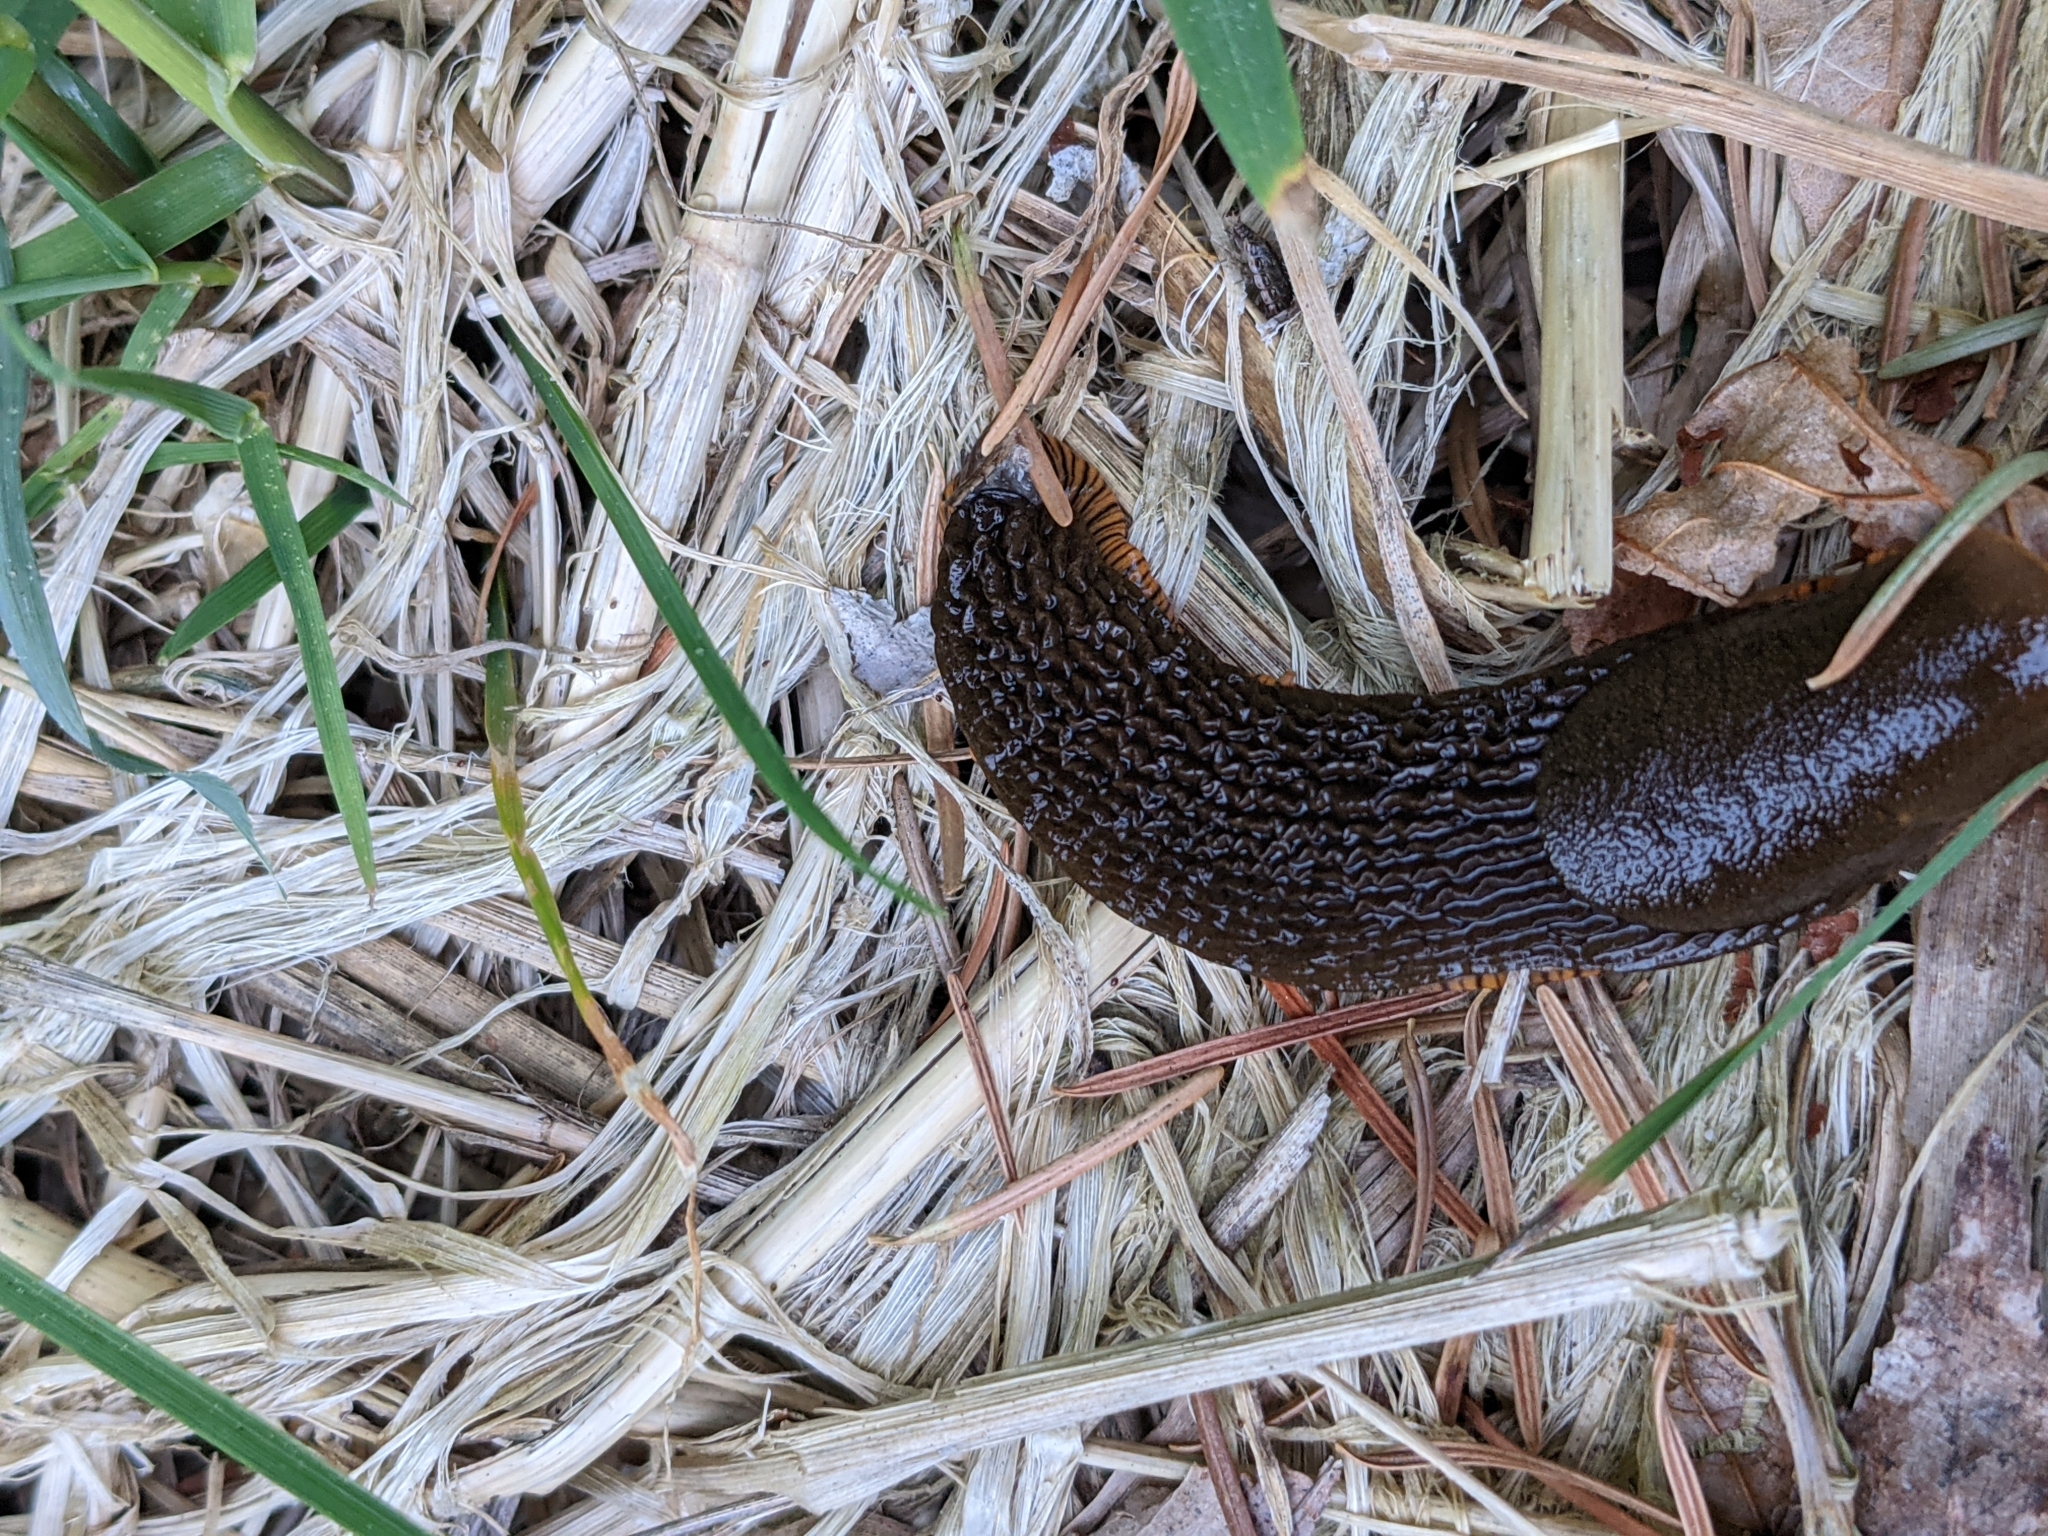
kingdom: Animalia
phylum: Mollusca
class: Gastropoda
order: Stylommatophora
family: Arionidae
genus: Arion
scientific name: Arion rufus
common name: Chocolate arion
